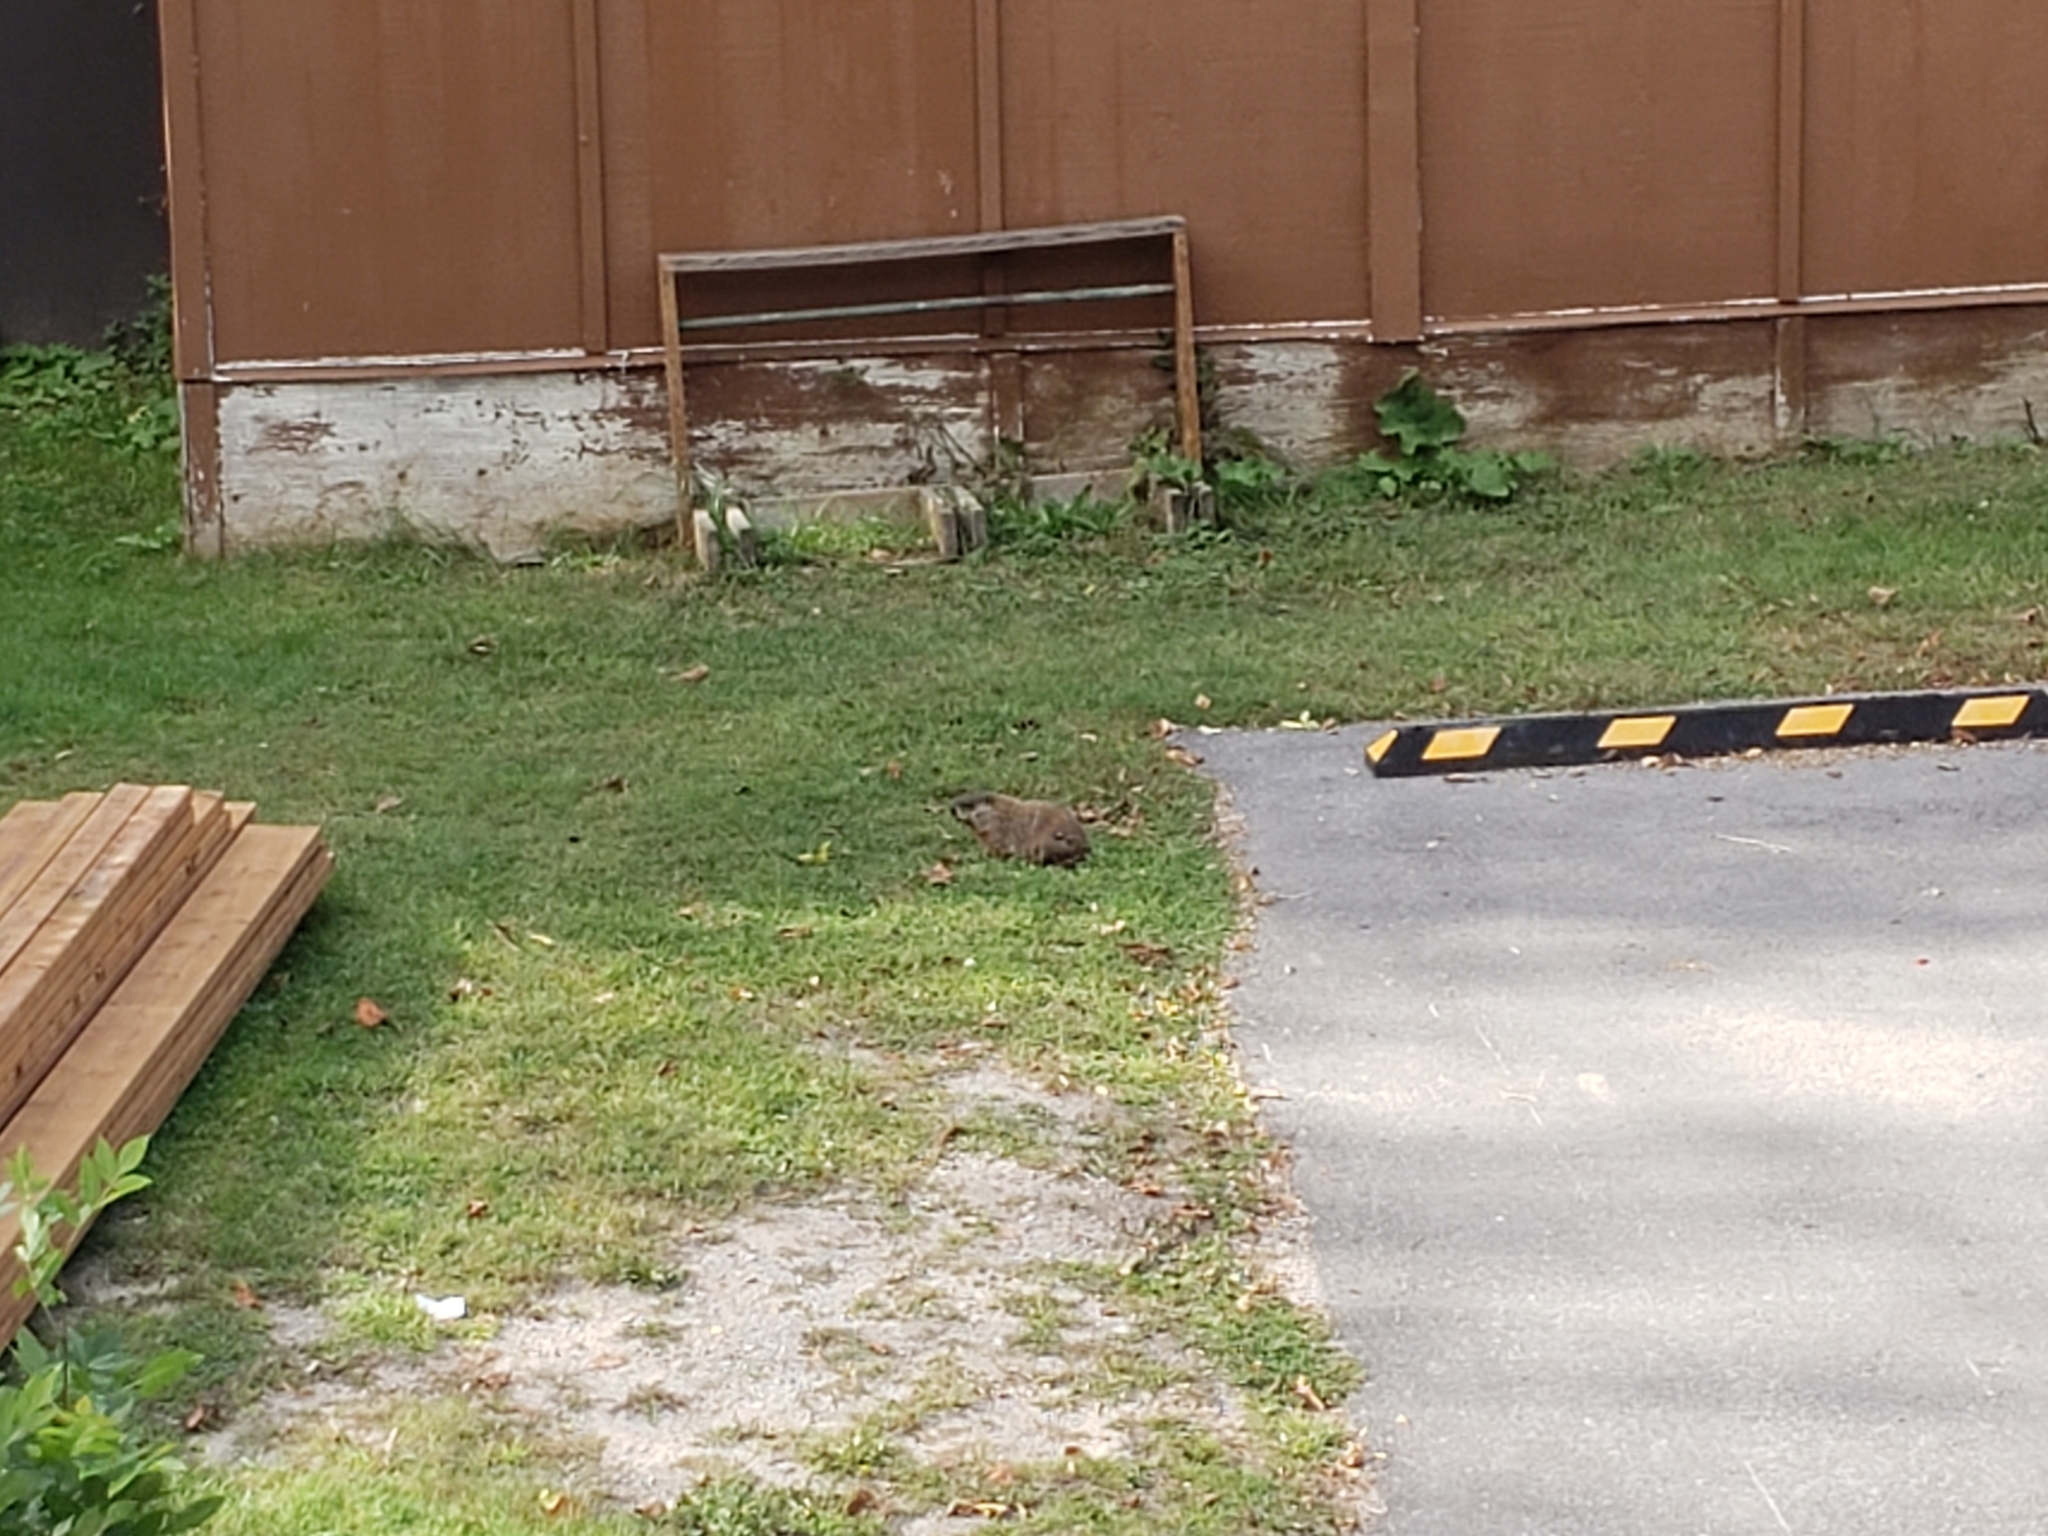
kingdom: Animalia
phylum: Chordata
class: Mammalia
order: Rodentia
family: Sciuridae
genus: Marmota
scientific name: Marmota monax
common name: Groundhog
